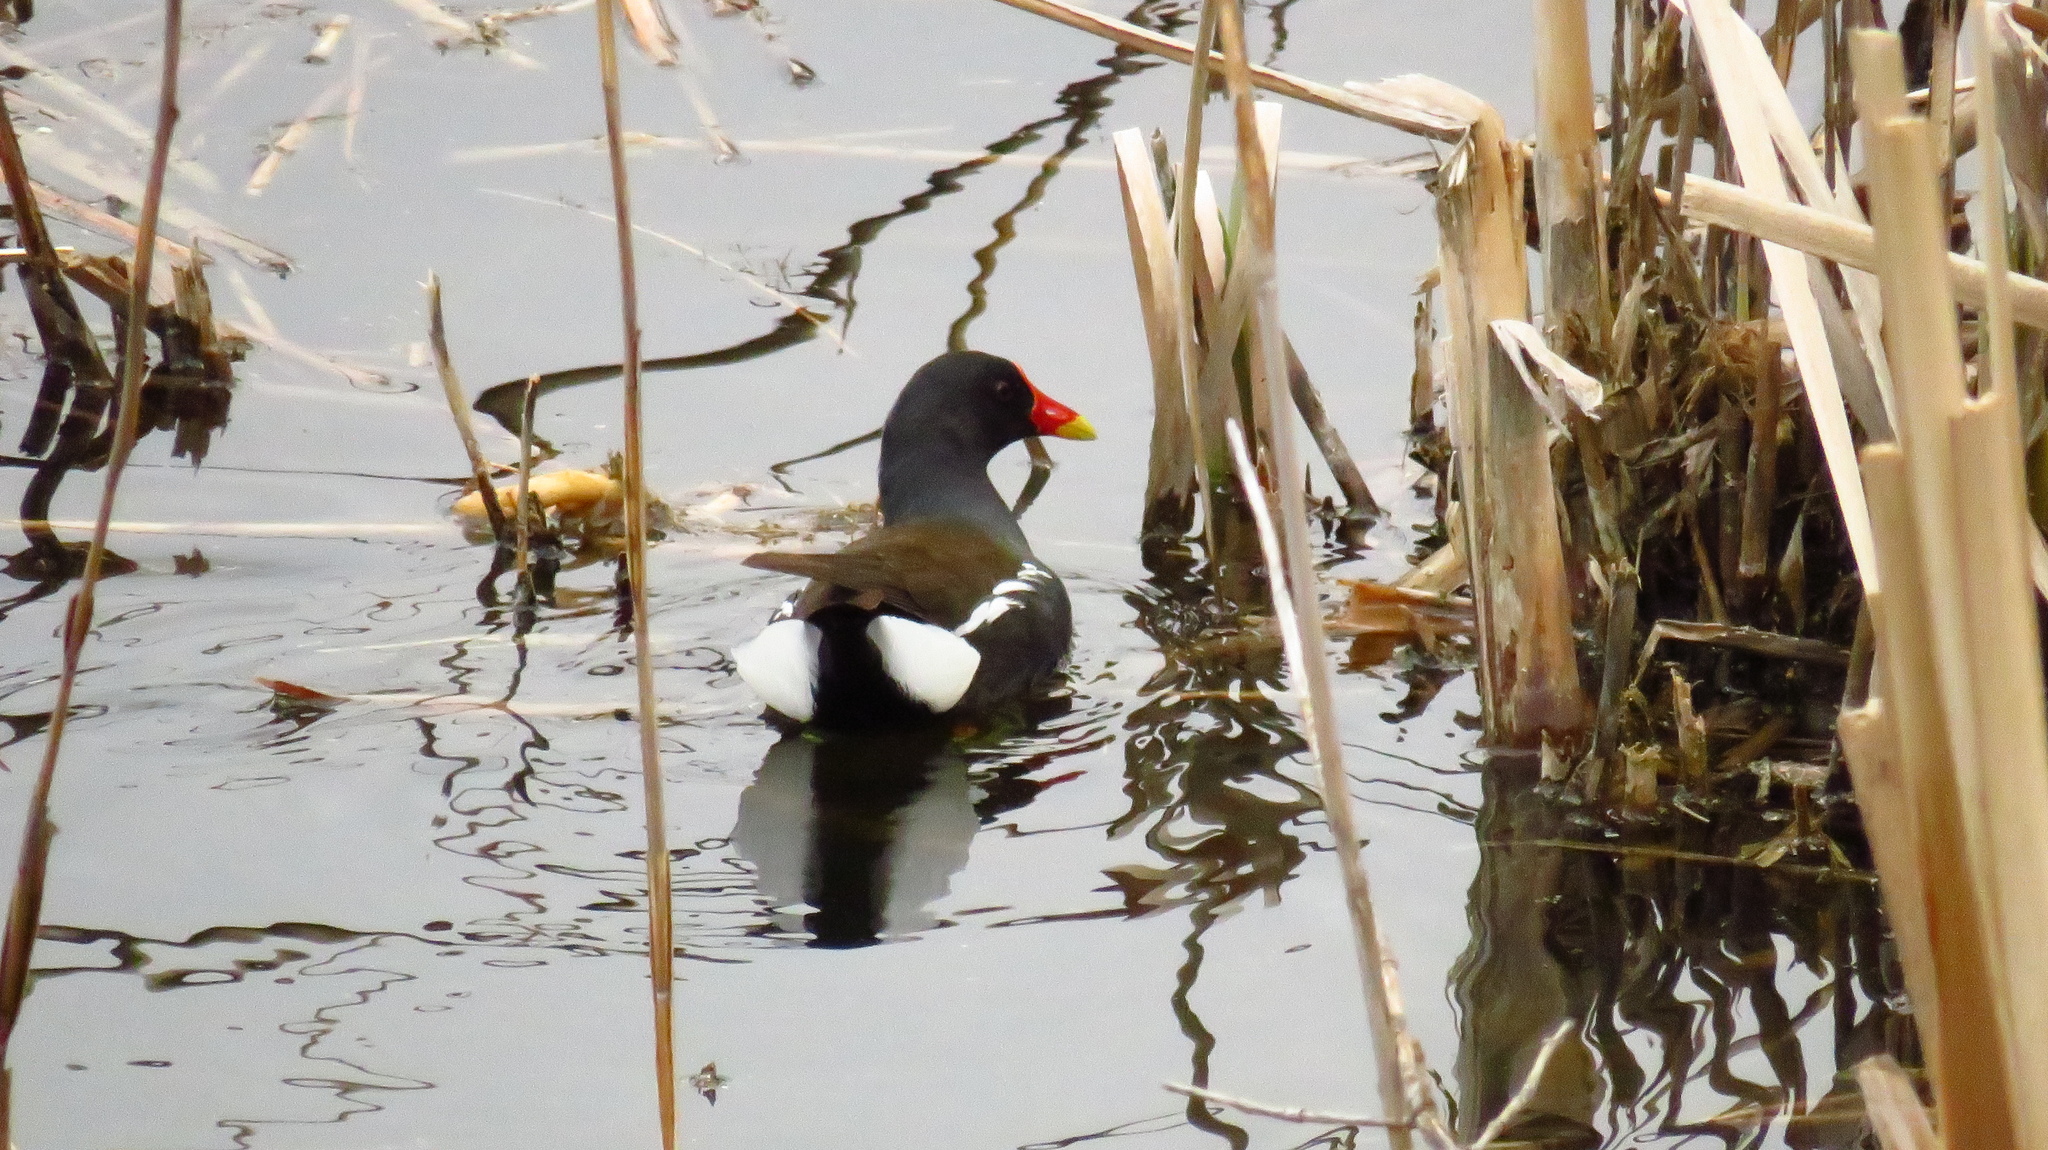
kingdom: Animalia
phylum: Chordata
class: Aves
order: Gruiformes
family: Rallidae
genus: Gallinula
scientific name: Gallinula chloropus
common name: Common moorhen
